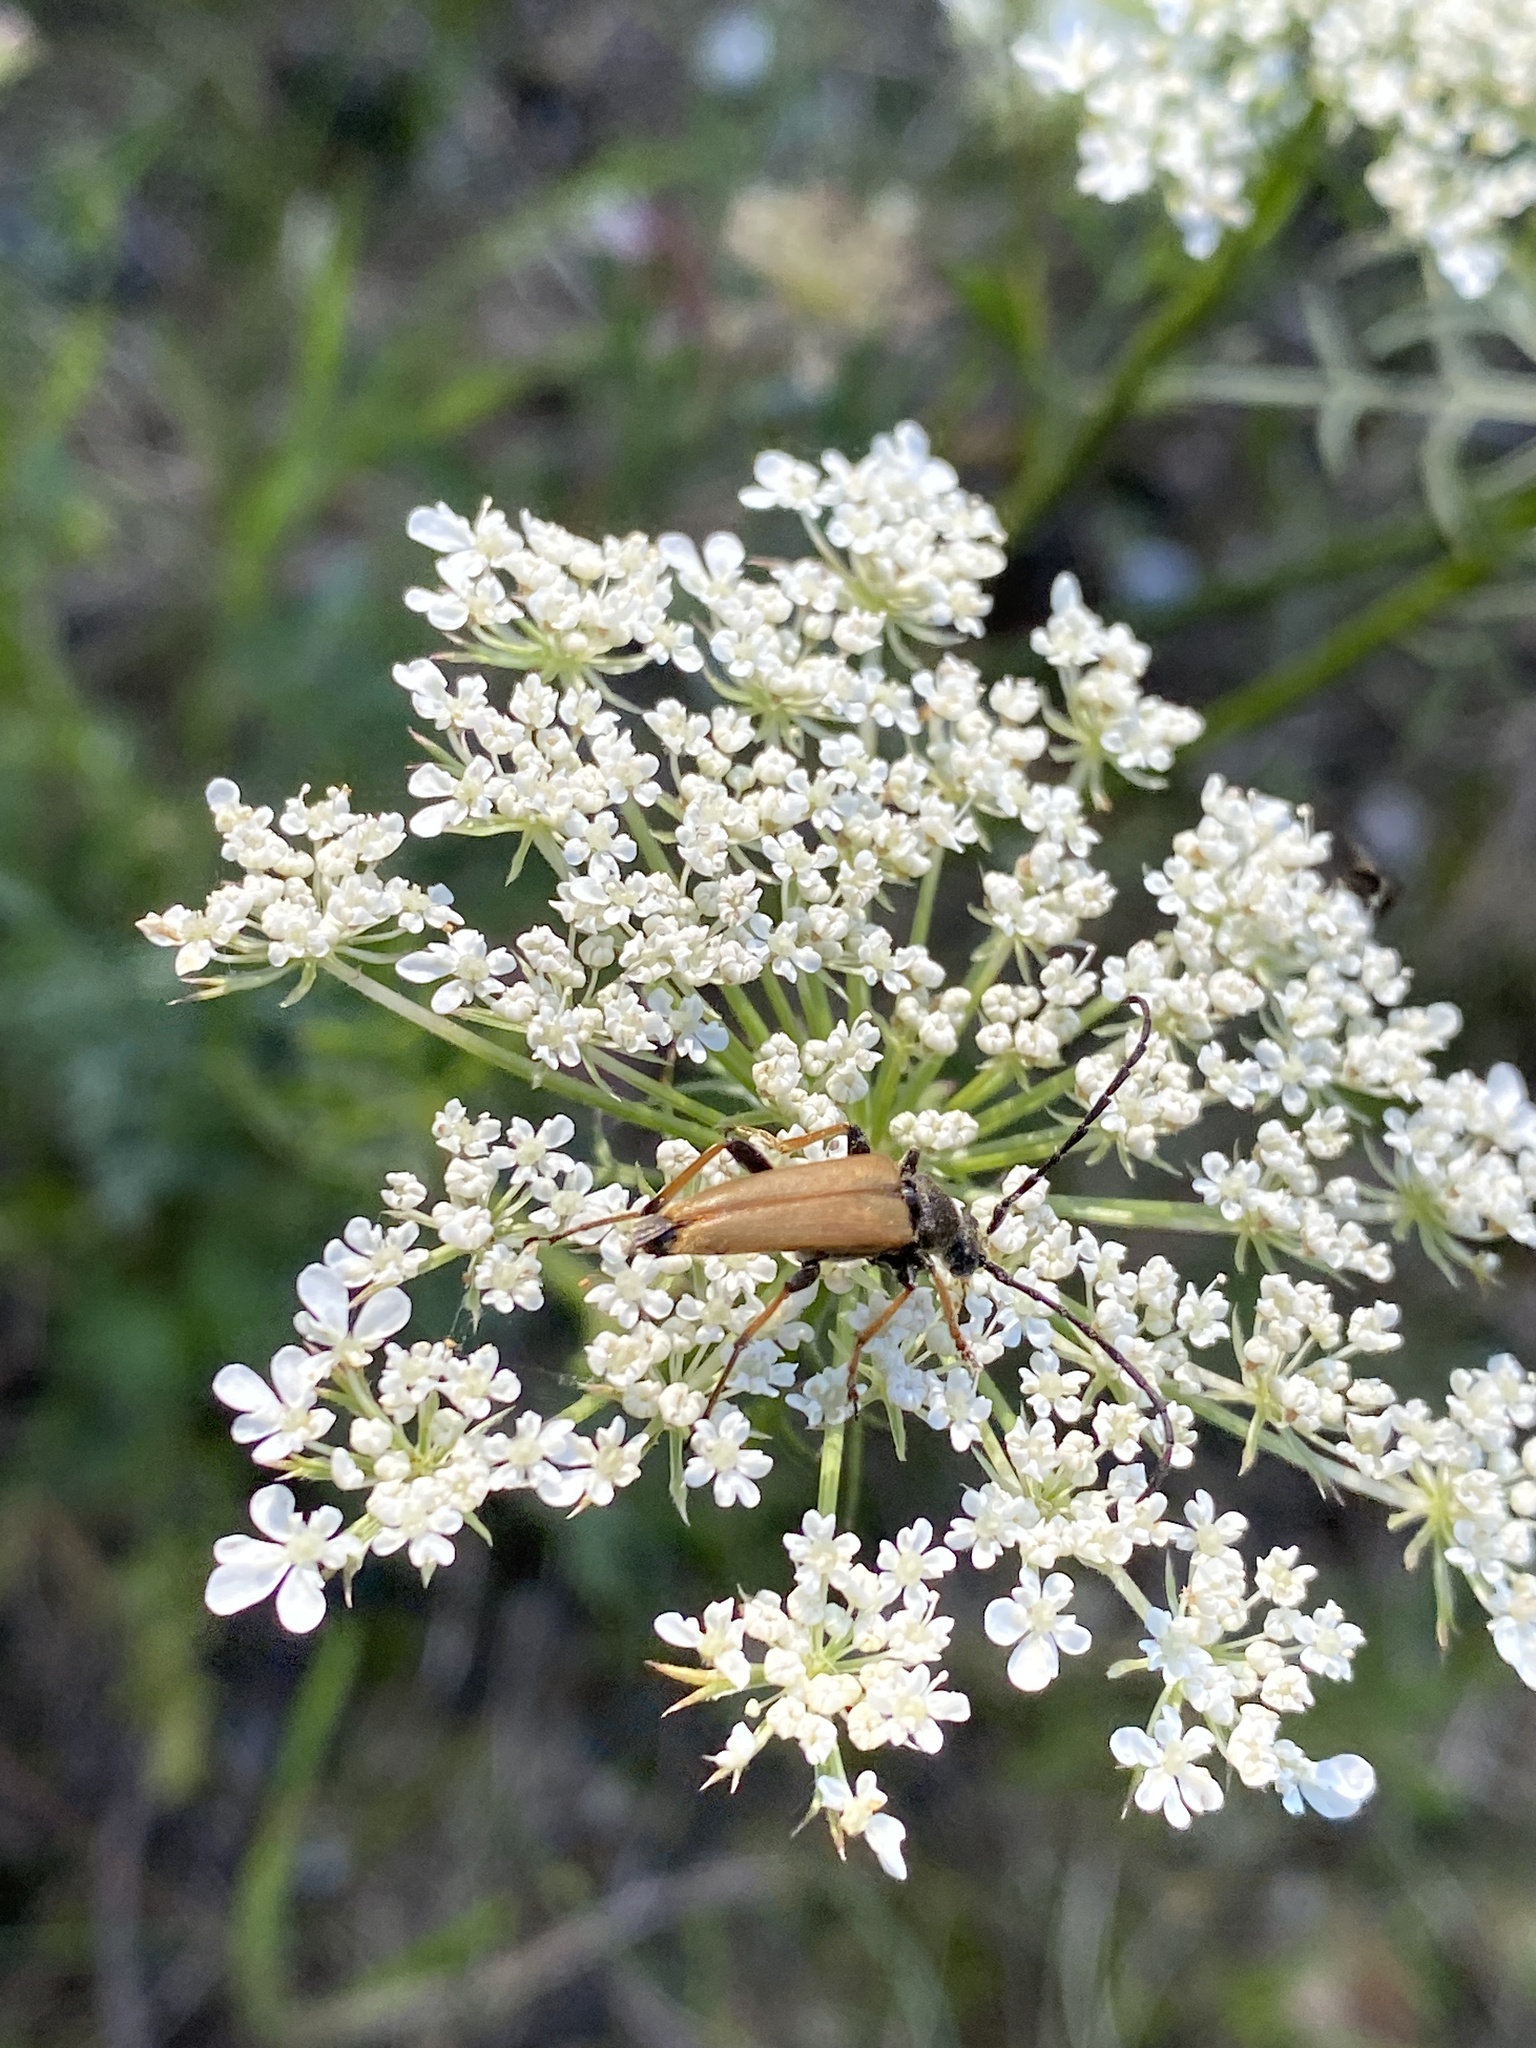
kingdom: Animalia
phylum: Arthropoda
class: Insecta
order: Coleoptera
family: Cerambycidae
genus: Stictoleptura
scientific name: Stictoleptura rubra
